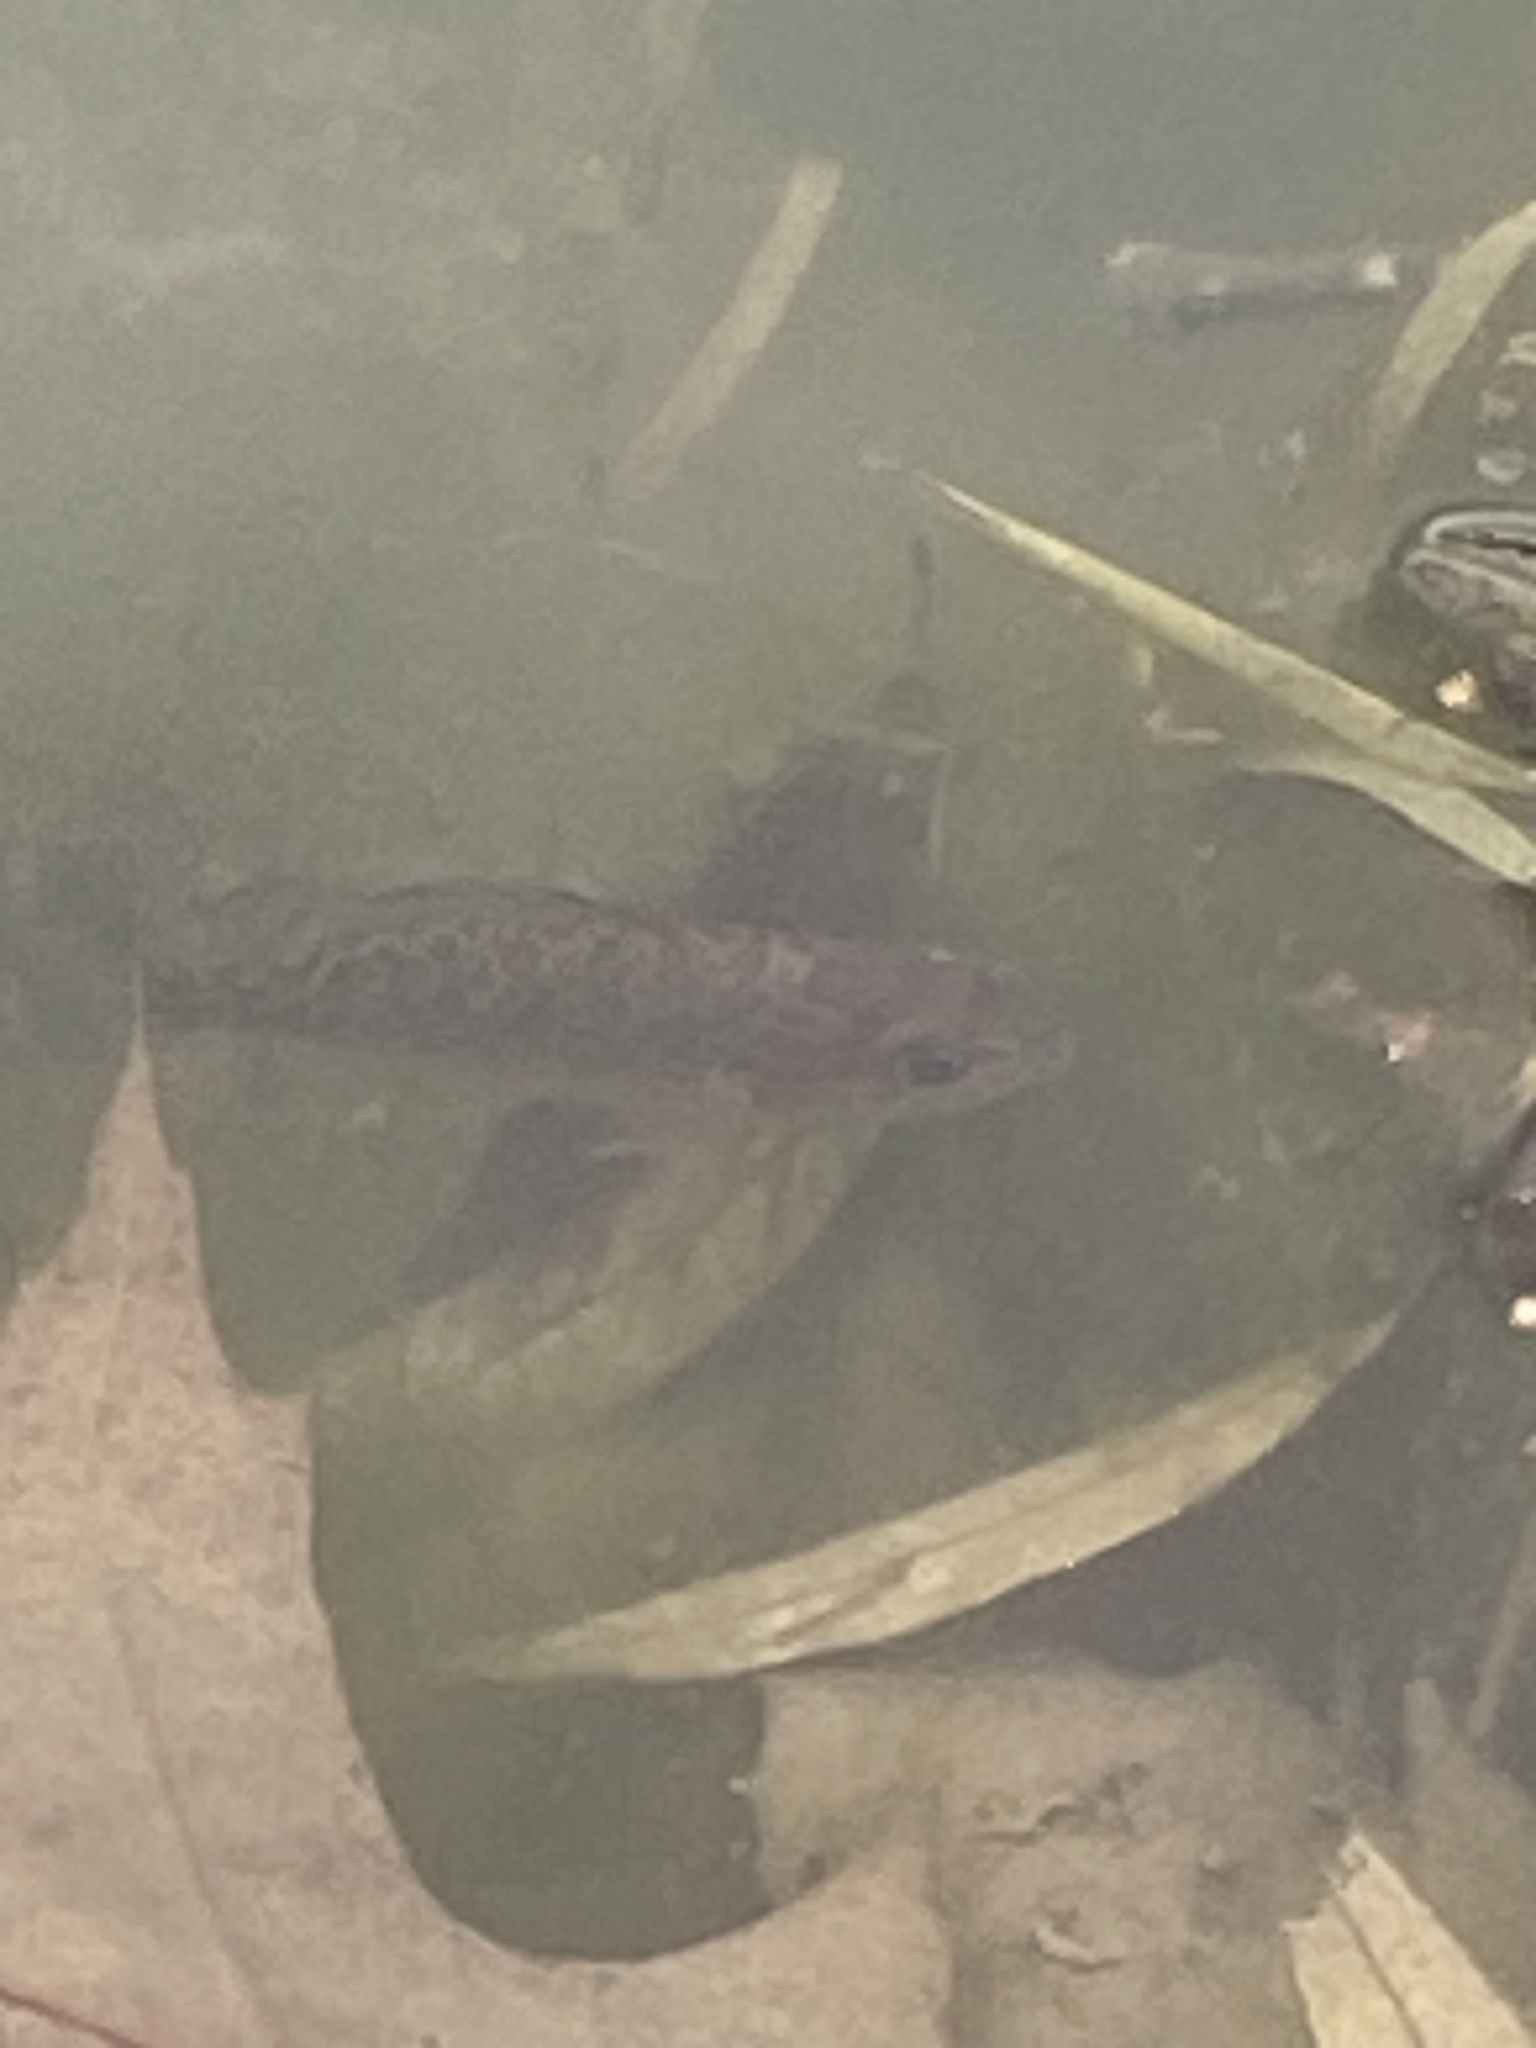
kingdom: Animalia
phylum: Chordata
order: Perciformes
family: Centrarchidae
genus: Lepomis
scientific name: Lepomis gibbosus
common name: Pumpkinseed
